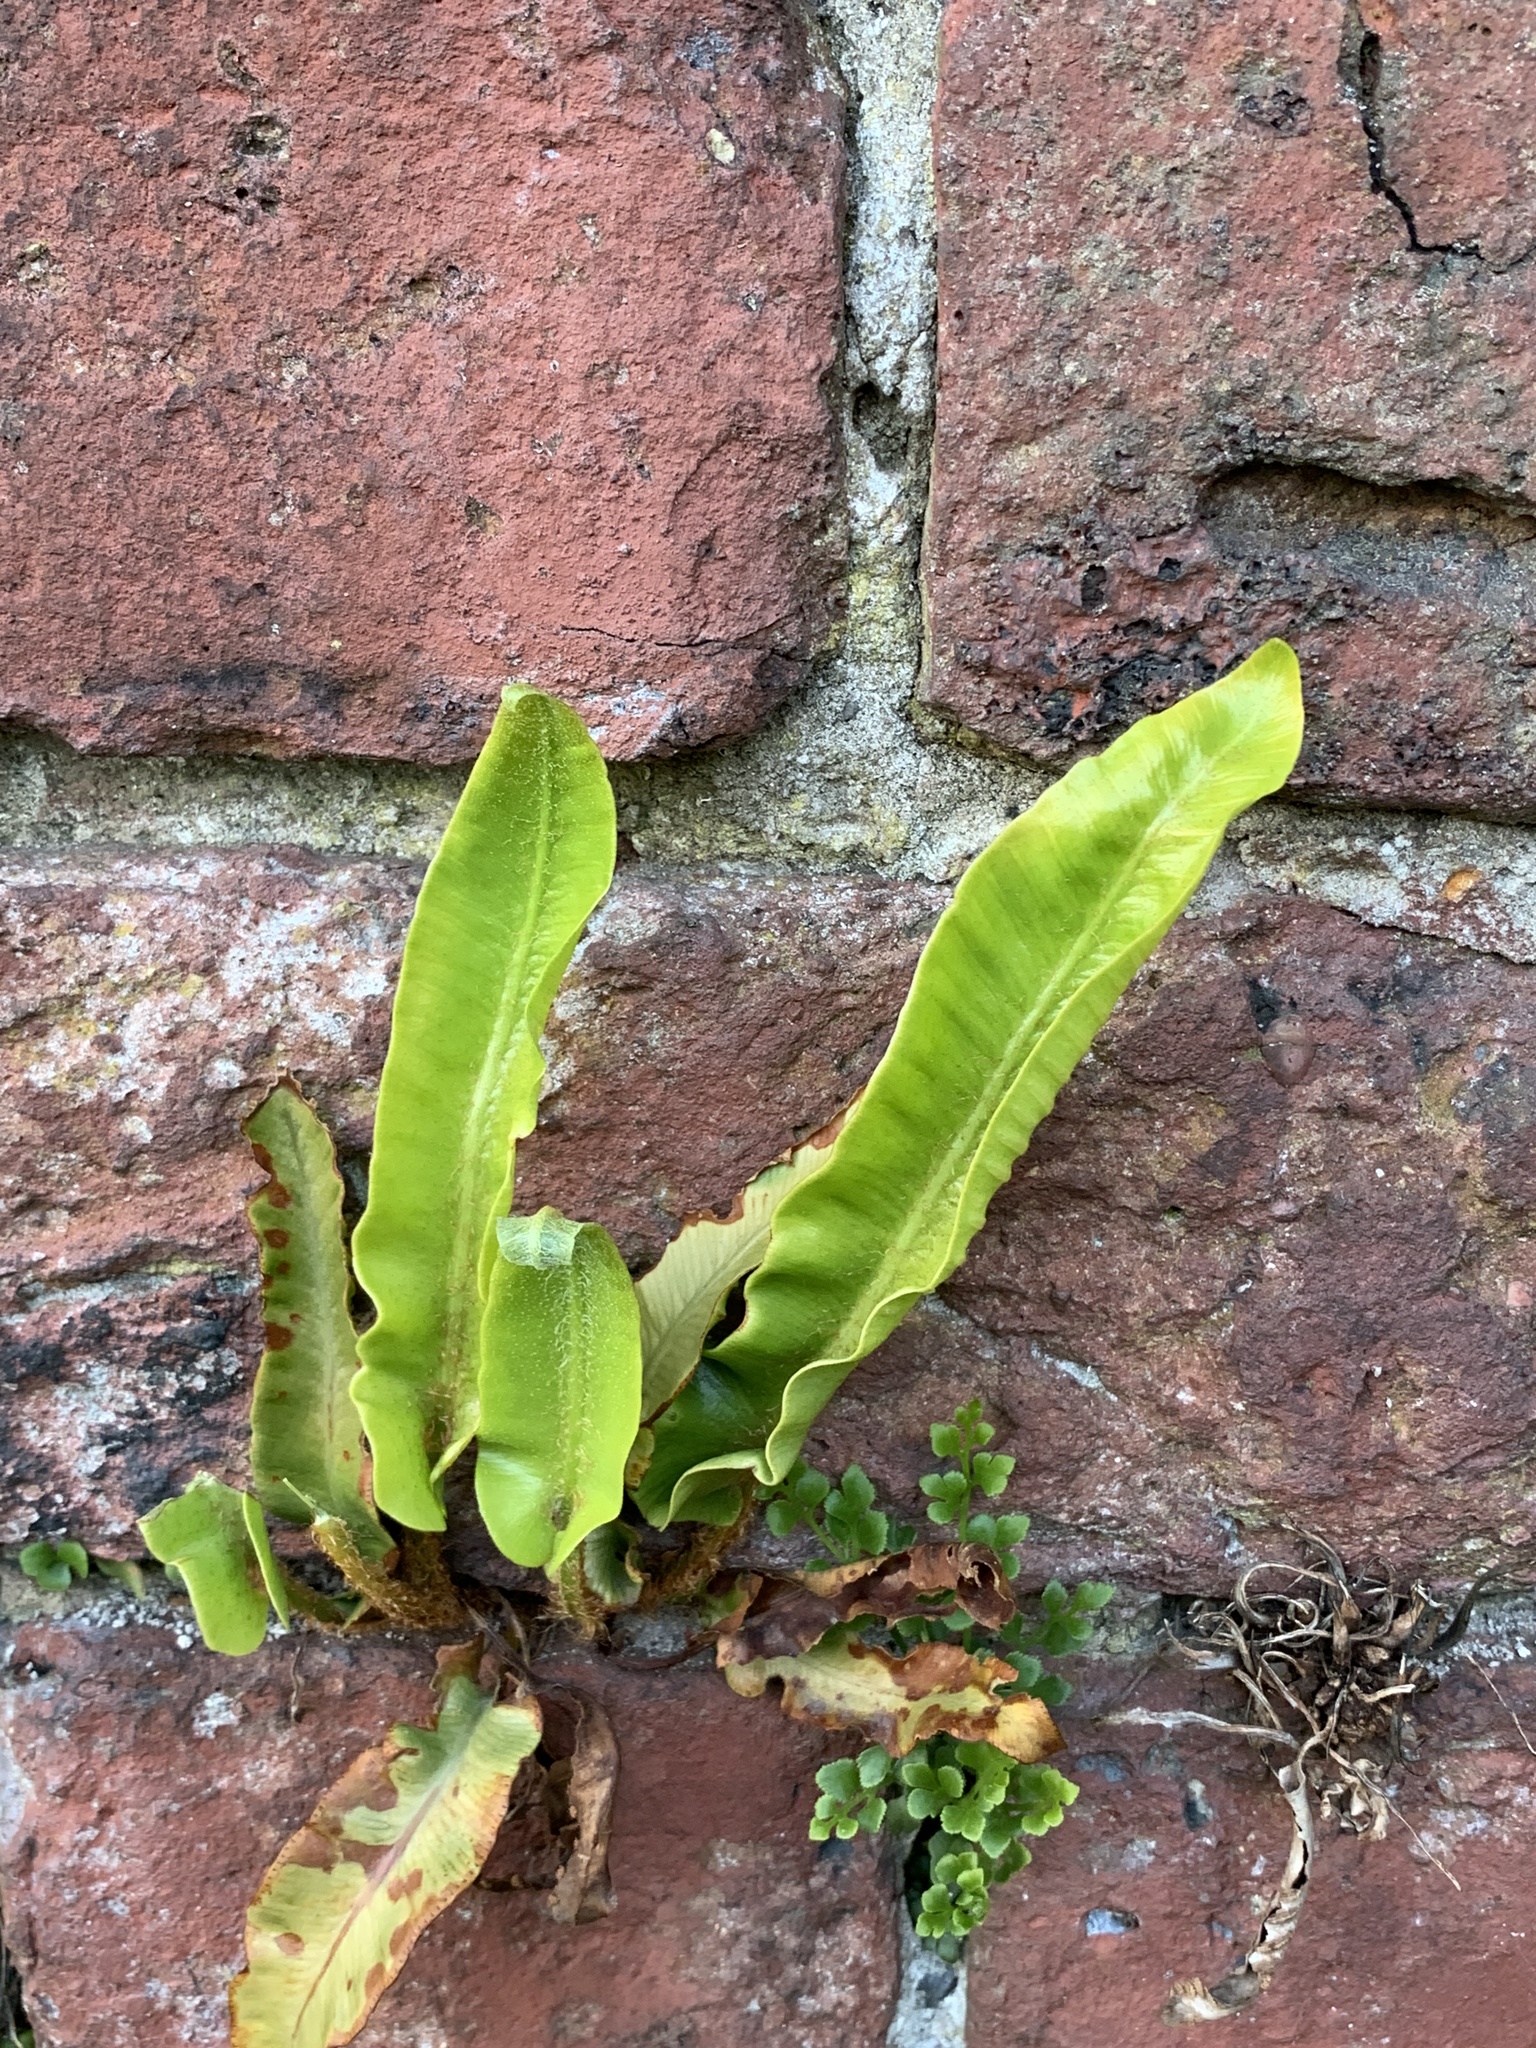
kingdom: Plantae
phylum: Tracheophyta
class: Polypodiopsida
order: Polypodiales
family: Aspleniaceae
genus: Asplenium
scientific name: Asplenium scolopendrium
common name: Hart's-tongue fern
